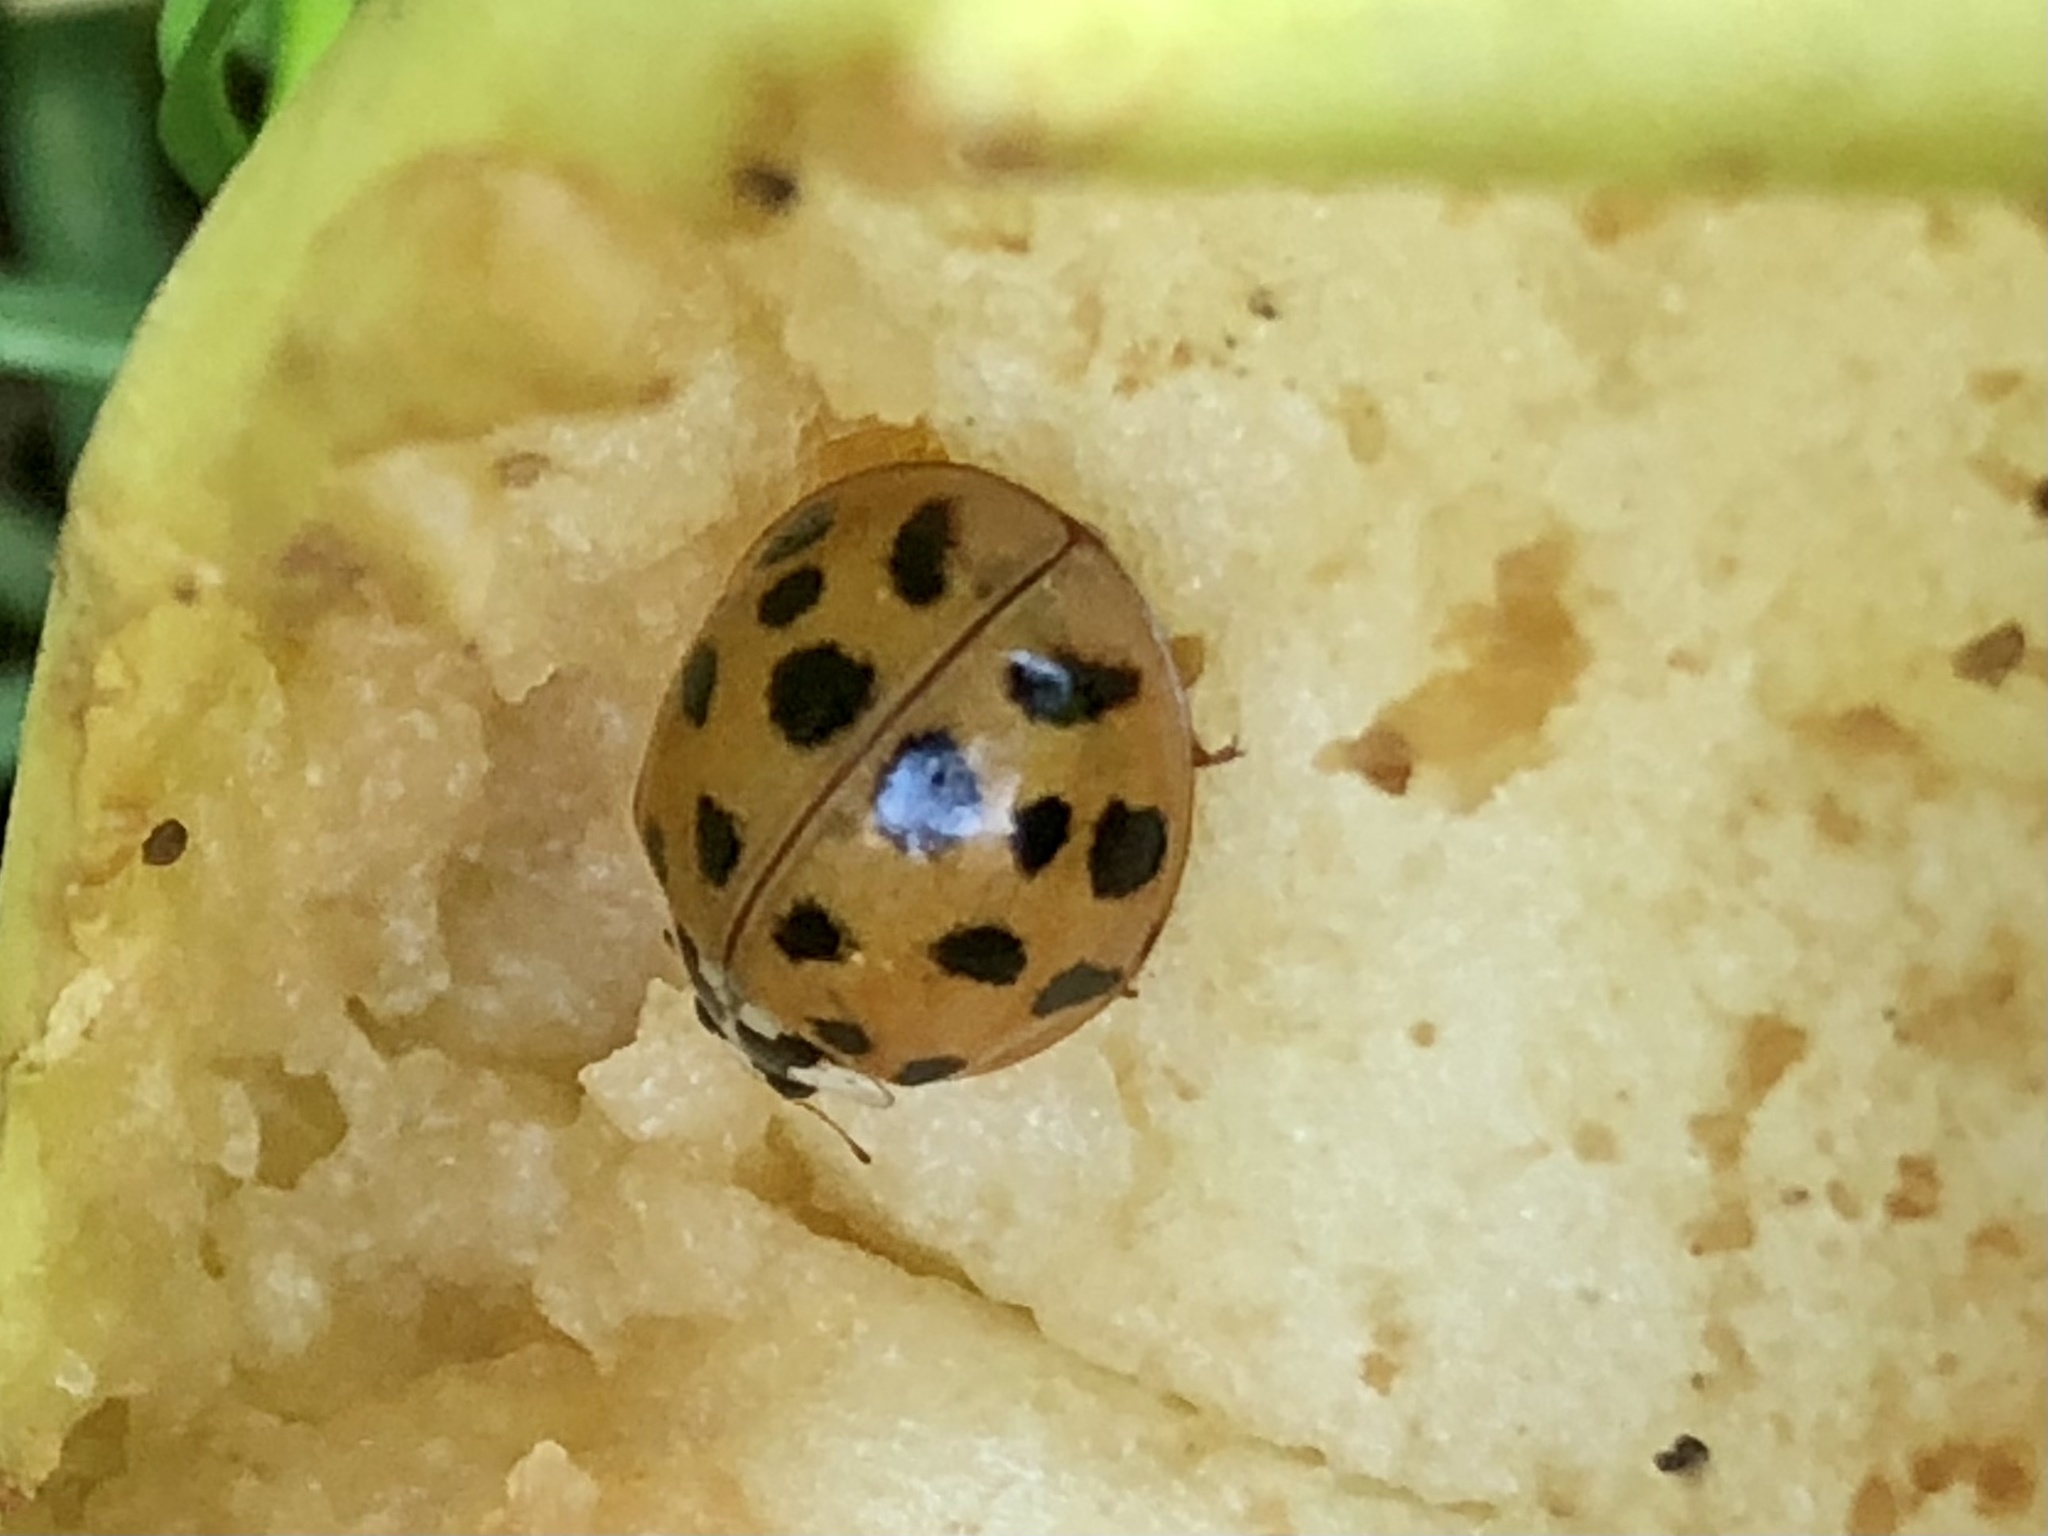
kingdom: Animalia
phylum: Arthropoda
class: Insecta
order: Coleoptera
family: Coccinellidae
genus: Harmonia
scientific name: Harmonia axyridis
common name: Harlequin ladybird
